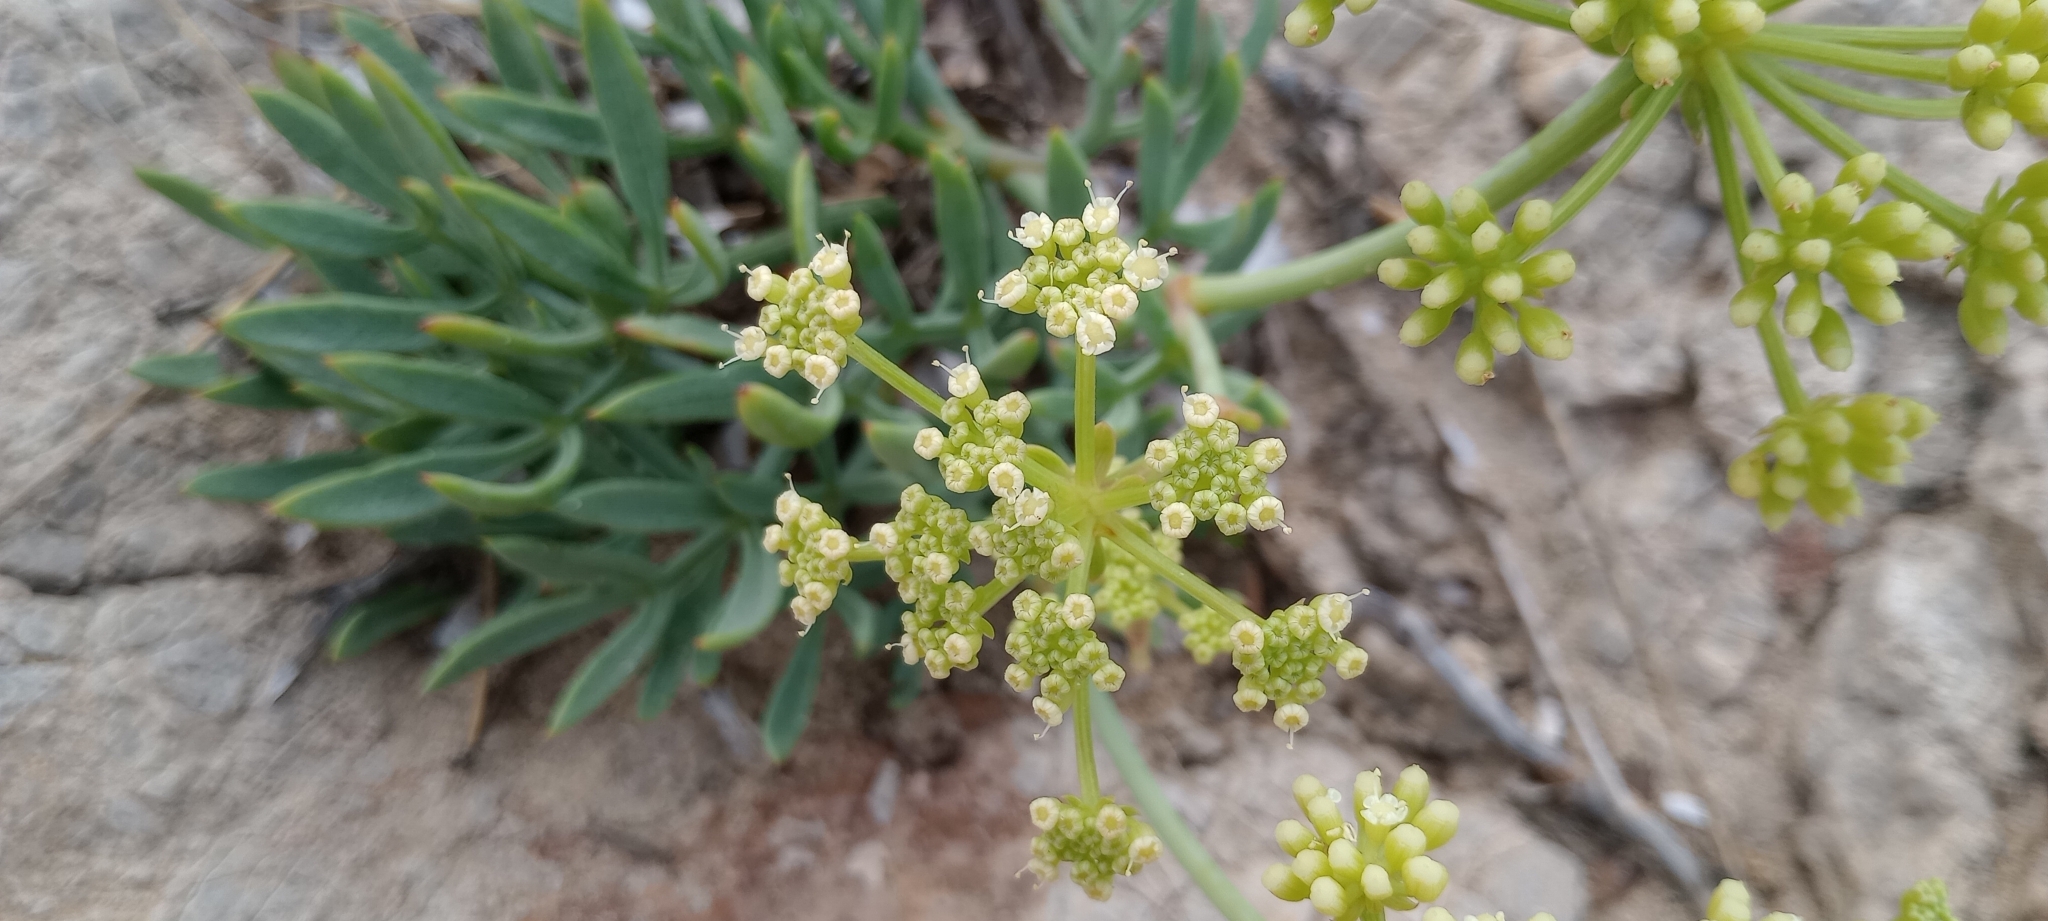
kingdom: Plantae
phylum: Tracheophyta
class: Magnoliopsida
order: Apiales
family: Apiaceae
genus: Crithmum
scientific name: Crithmum maritimum
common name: Rock samphire
